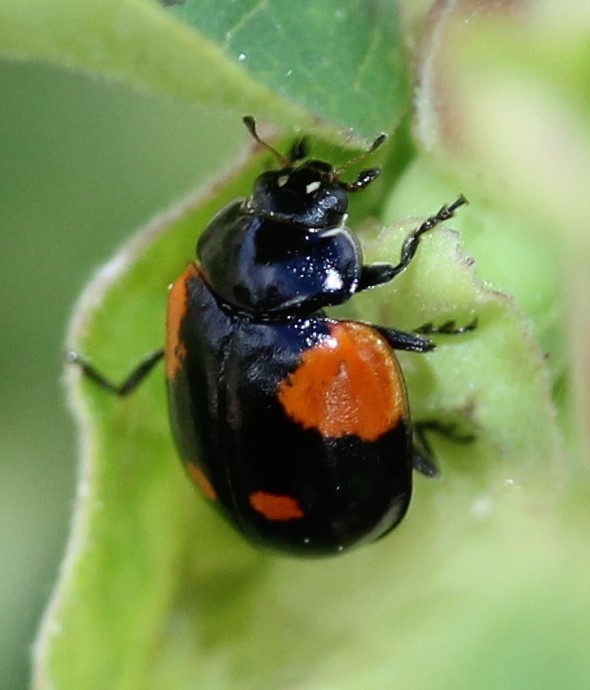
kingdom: Animalia
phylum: Arthropoda
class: Insecta
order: Coleoptera
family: Coccinellidae
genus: Adalia
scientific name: Adalia bipunctata
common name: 2-spot ladybird
